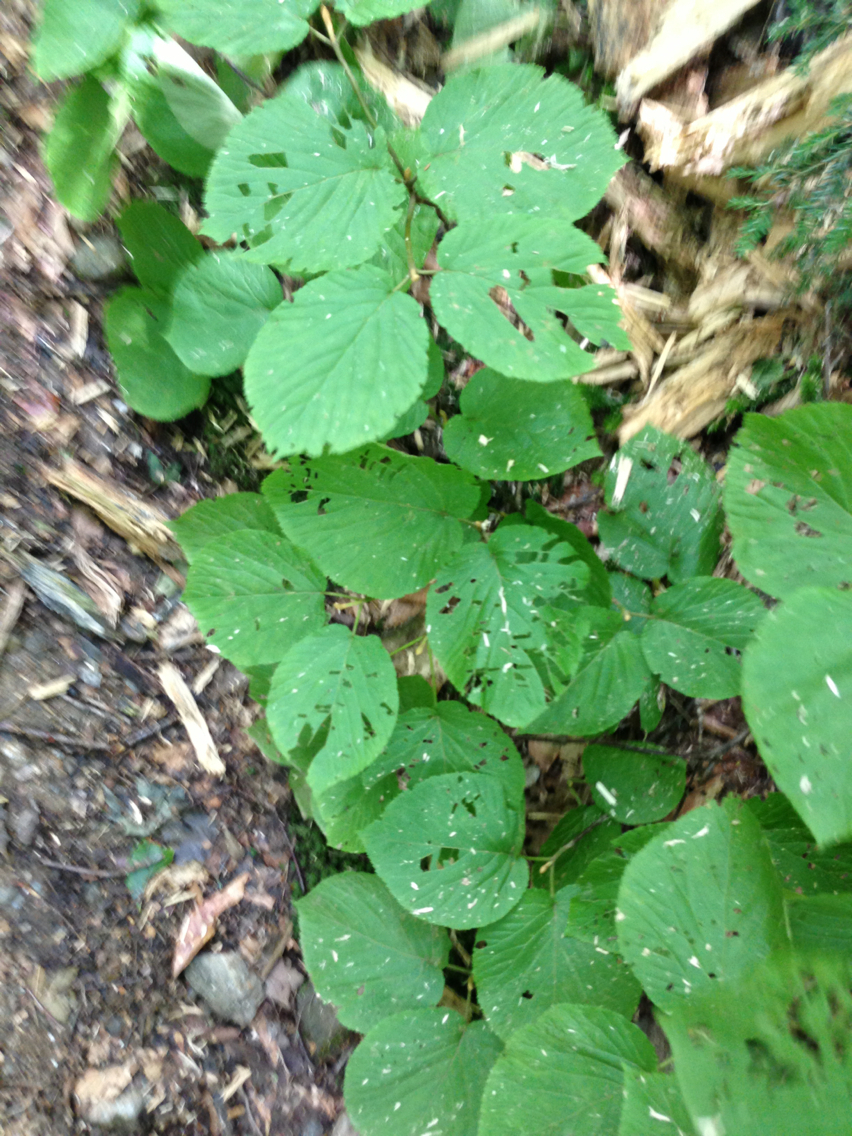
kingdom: Plantae
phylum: Tracheophyta
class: Magnoliopsida
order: Dipsacales
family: Viburnaceae
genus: Viburnum
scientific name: Viburnum lantanoides
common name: Hobblebush
